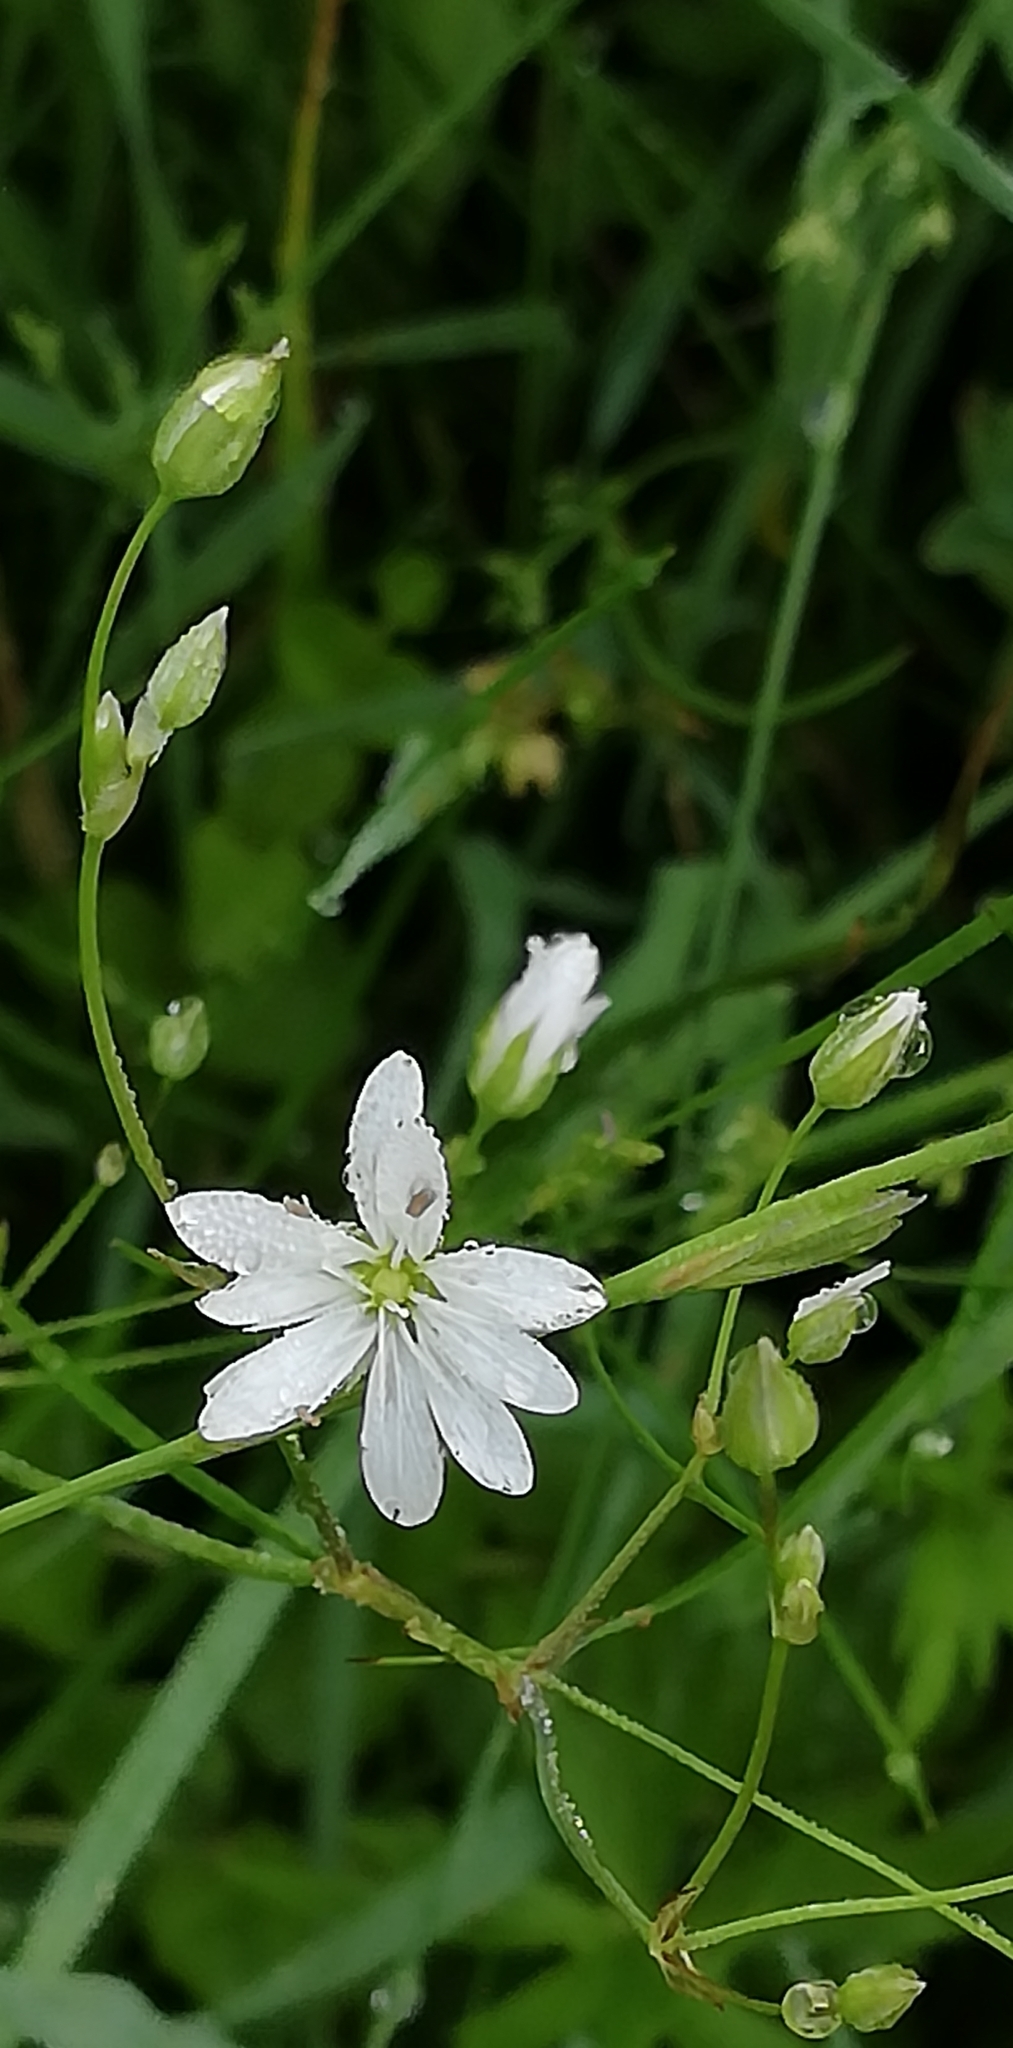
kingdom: Plantae
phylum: Tracheophyta
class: Magnoliopsida
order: Caryophyllales
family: Caryophyllaceae
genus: Stellaria
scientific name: Stellaria graminea
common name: Grass-like starwort
